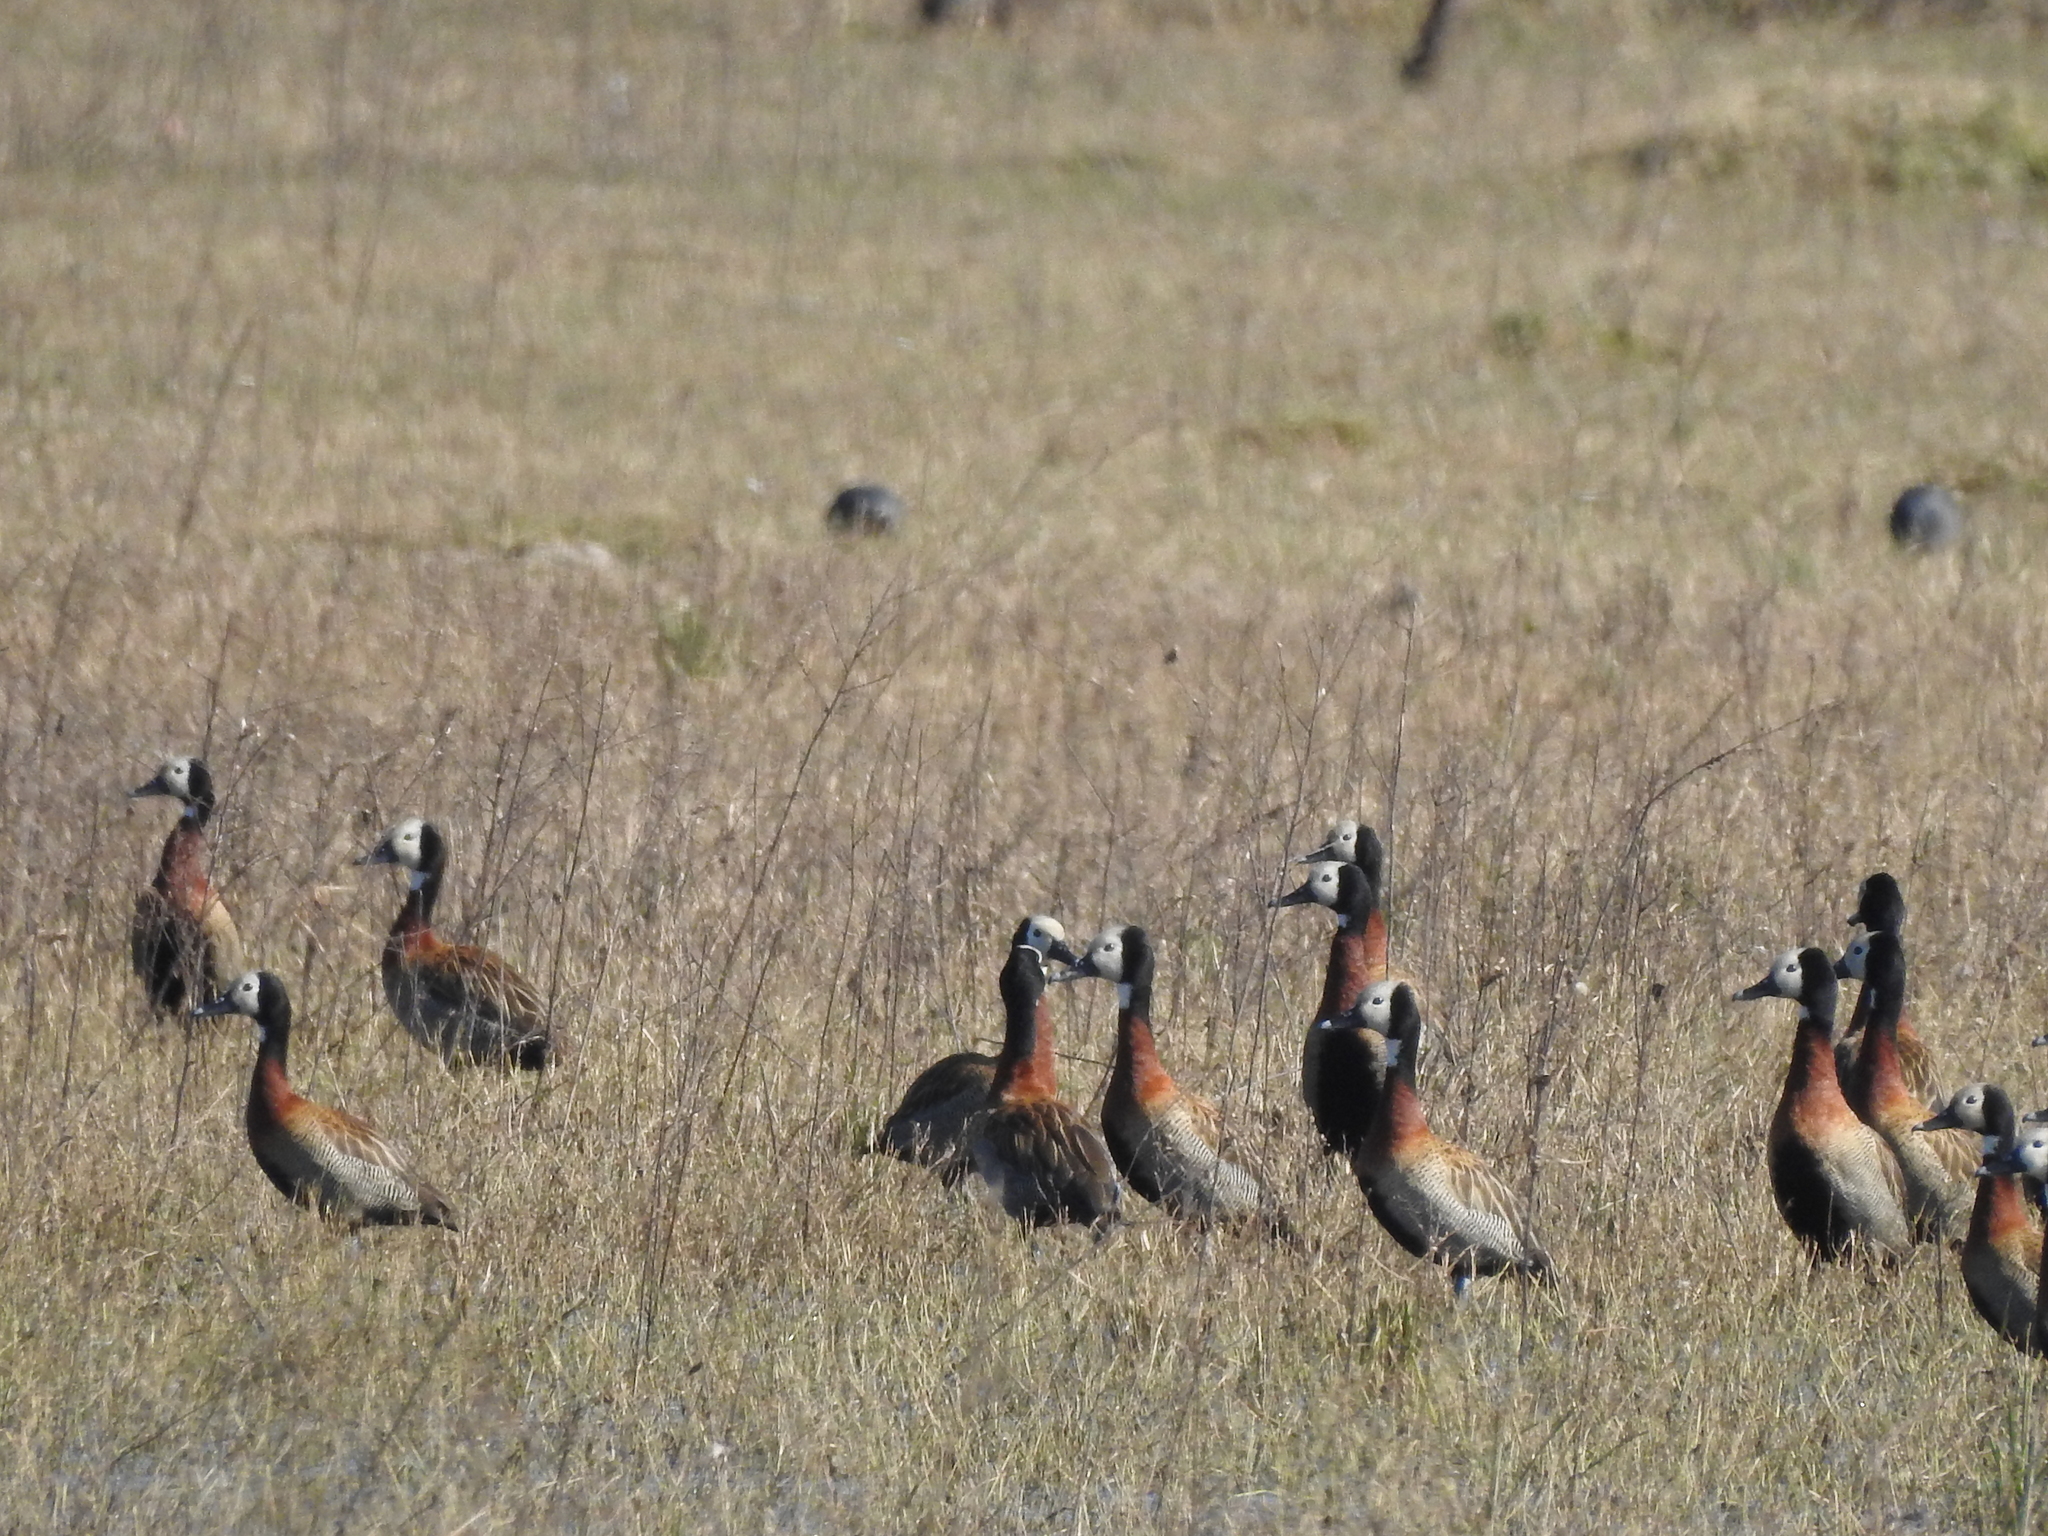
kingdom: Animalia
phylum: Chordata
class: Aves
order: Anseriformes
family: Anatidae
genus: Dendrocygna
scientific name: Dendrocygna viduata
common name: White-faced whistling duck
